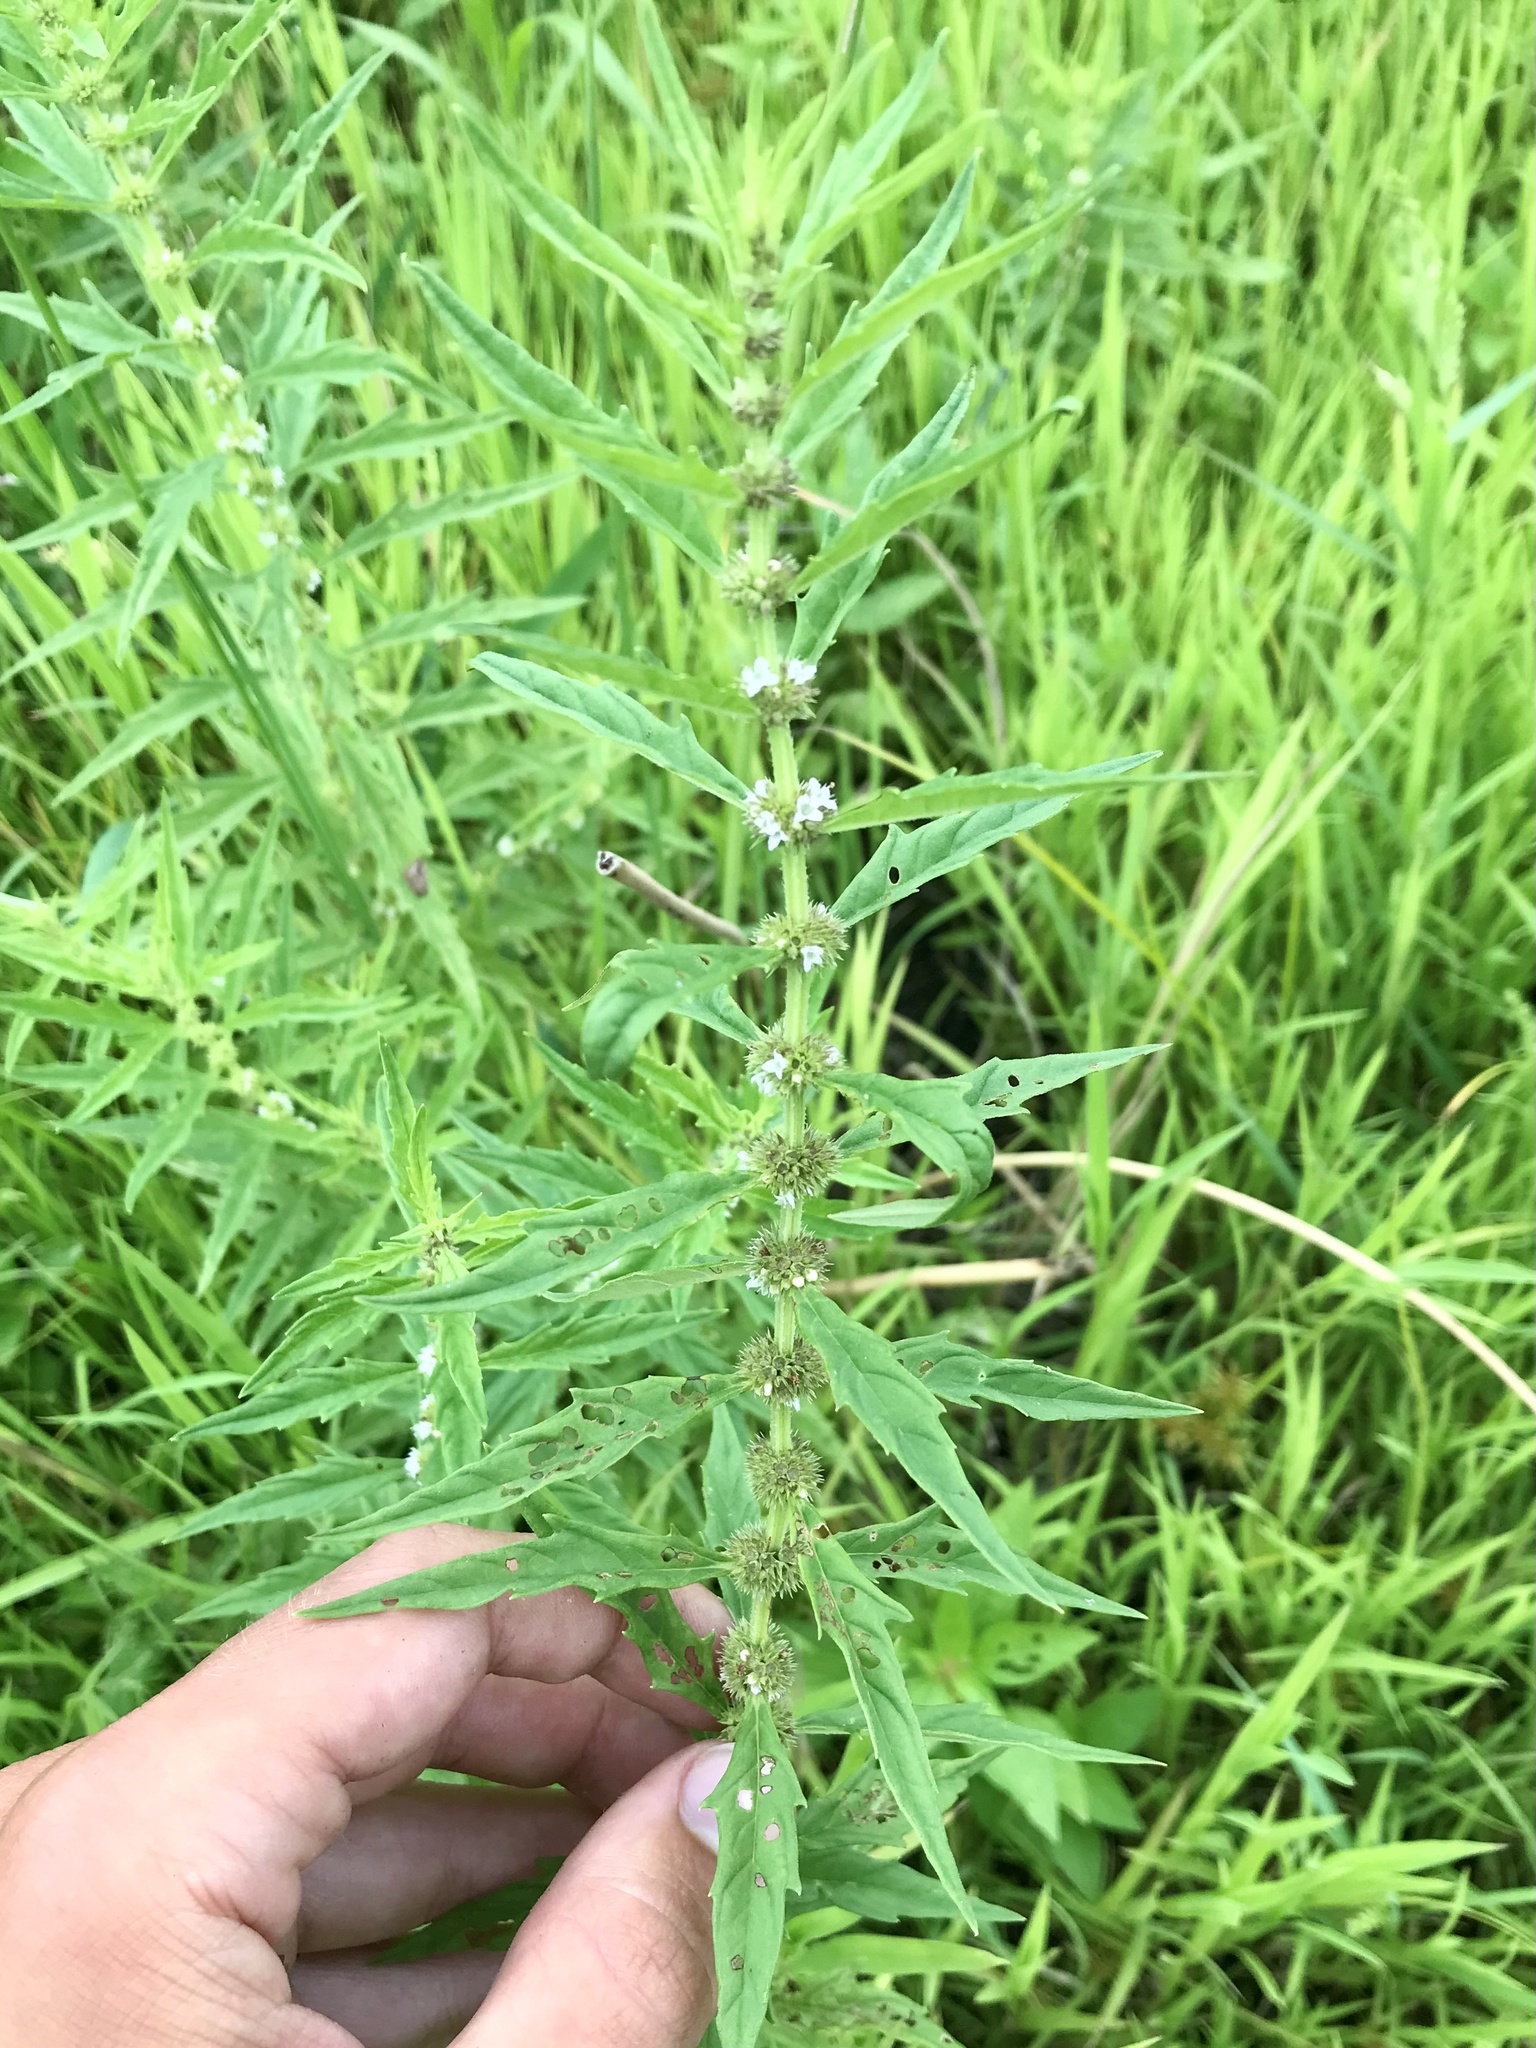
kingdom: Plantae
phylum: Tracheophyta
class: Magnoliopsida
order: Lamiales
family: Lamiaceae
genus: Lycopus
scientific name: Lycopus americanus
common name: American bugleweed
